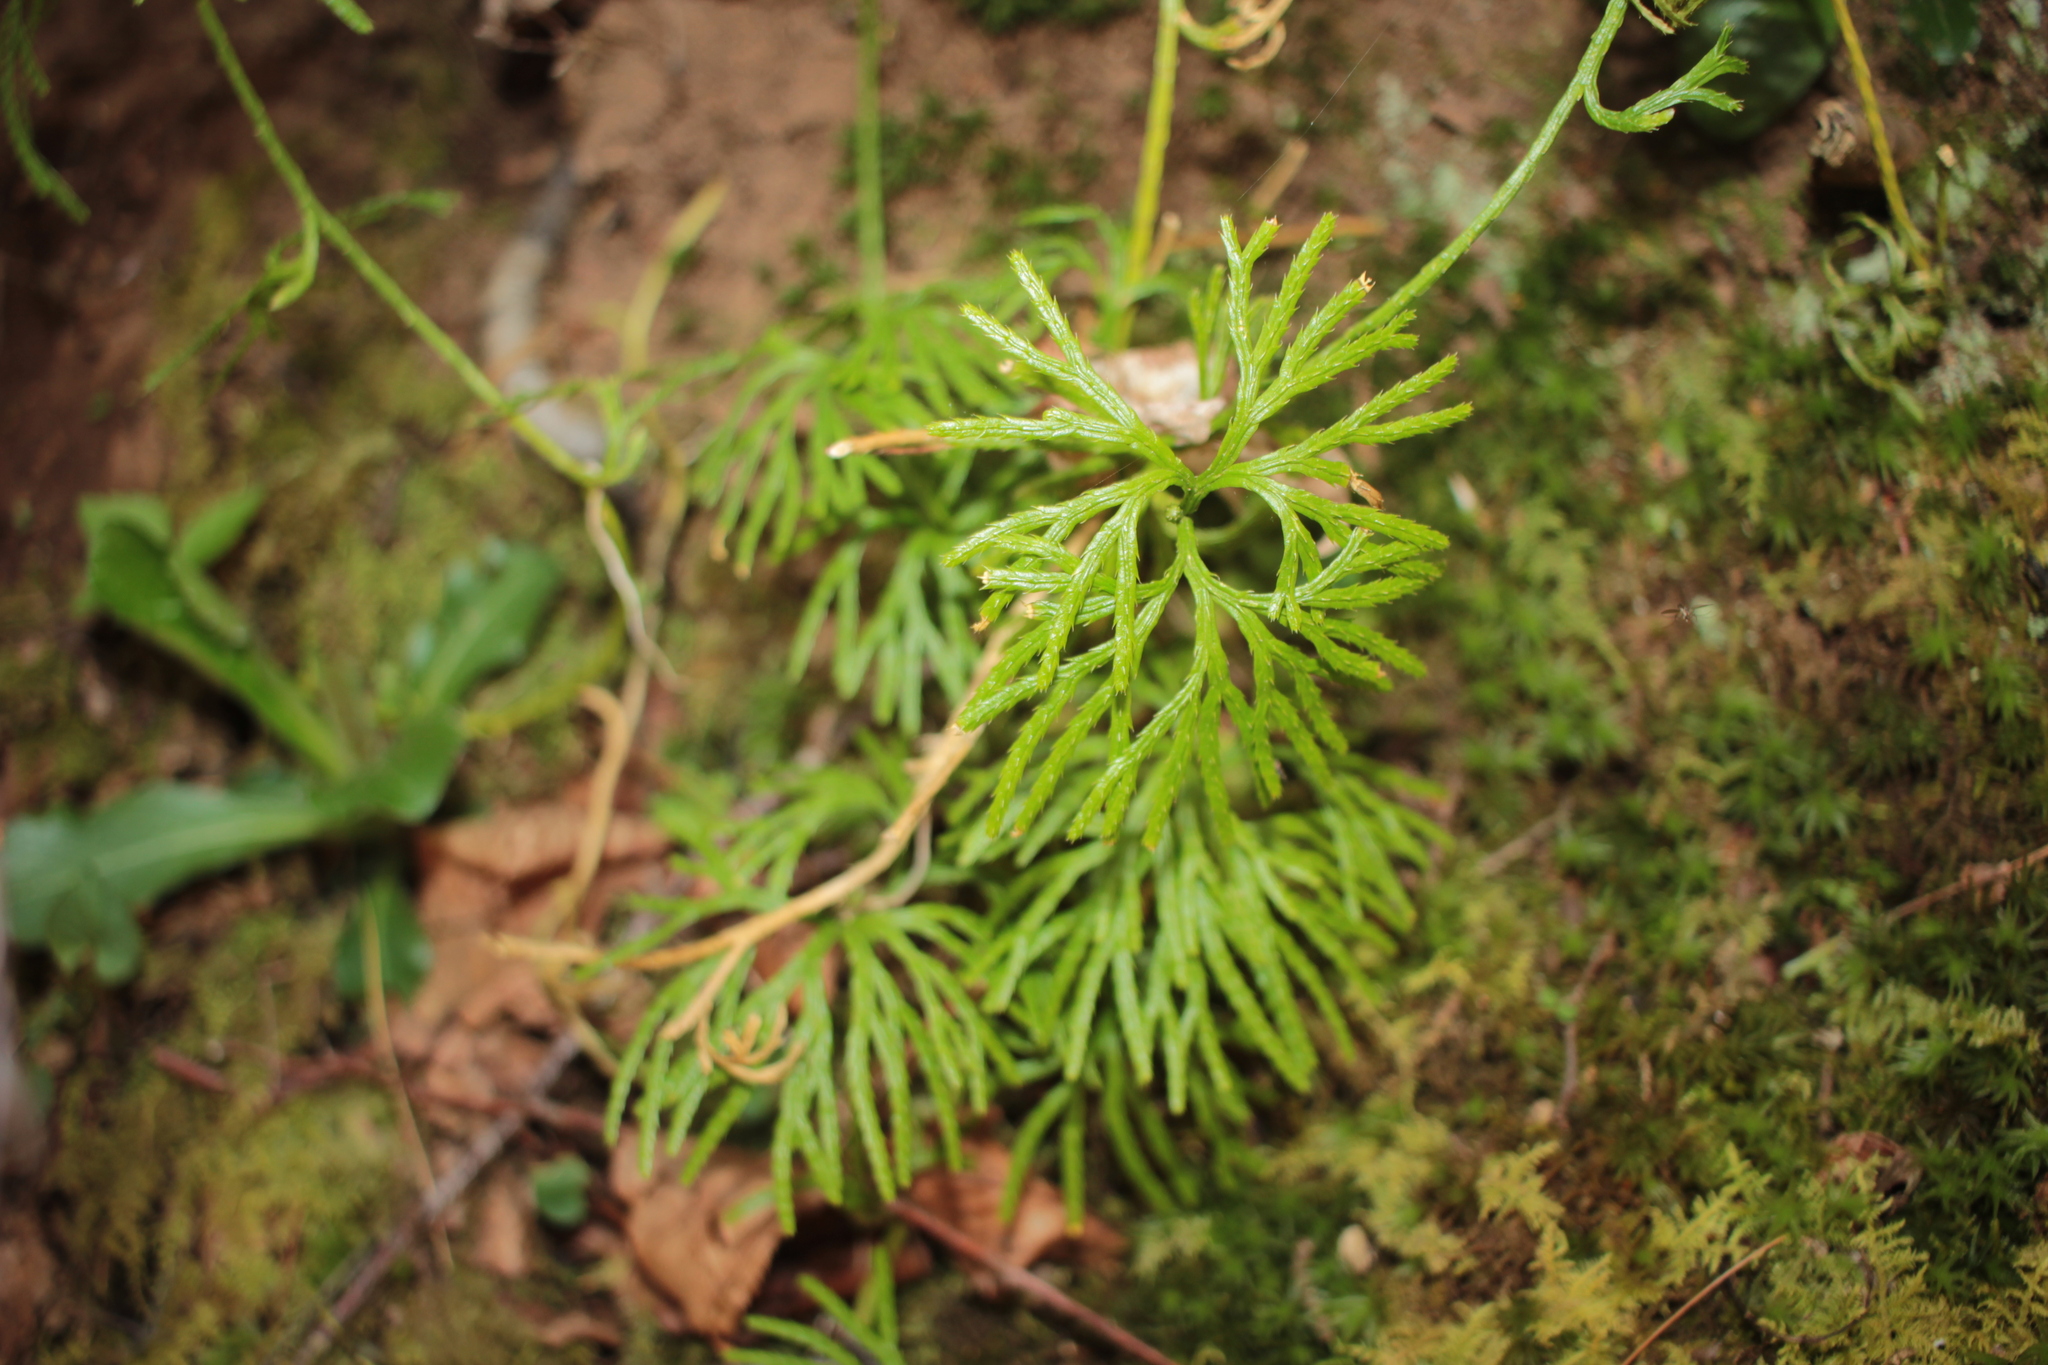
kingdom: Plantae
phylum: Tracheophyta
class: Lycopodiopsida
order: Lycopodiales
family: Lycopodiaceae
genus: Diphasiastrum
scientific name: Diphasiastrum digitatum
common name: Southern running-pine
